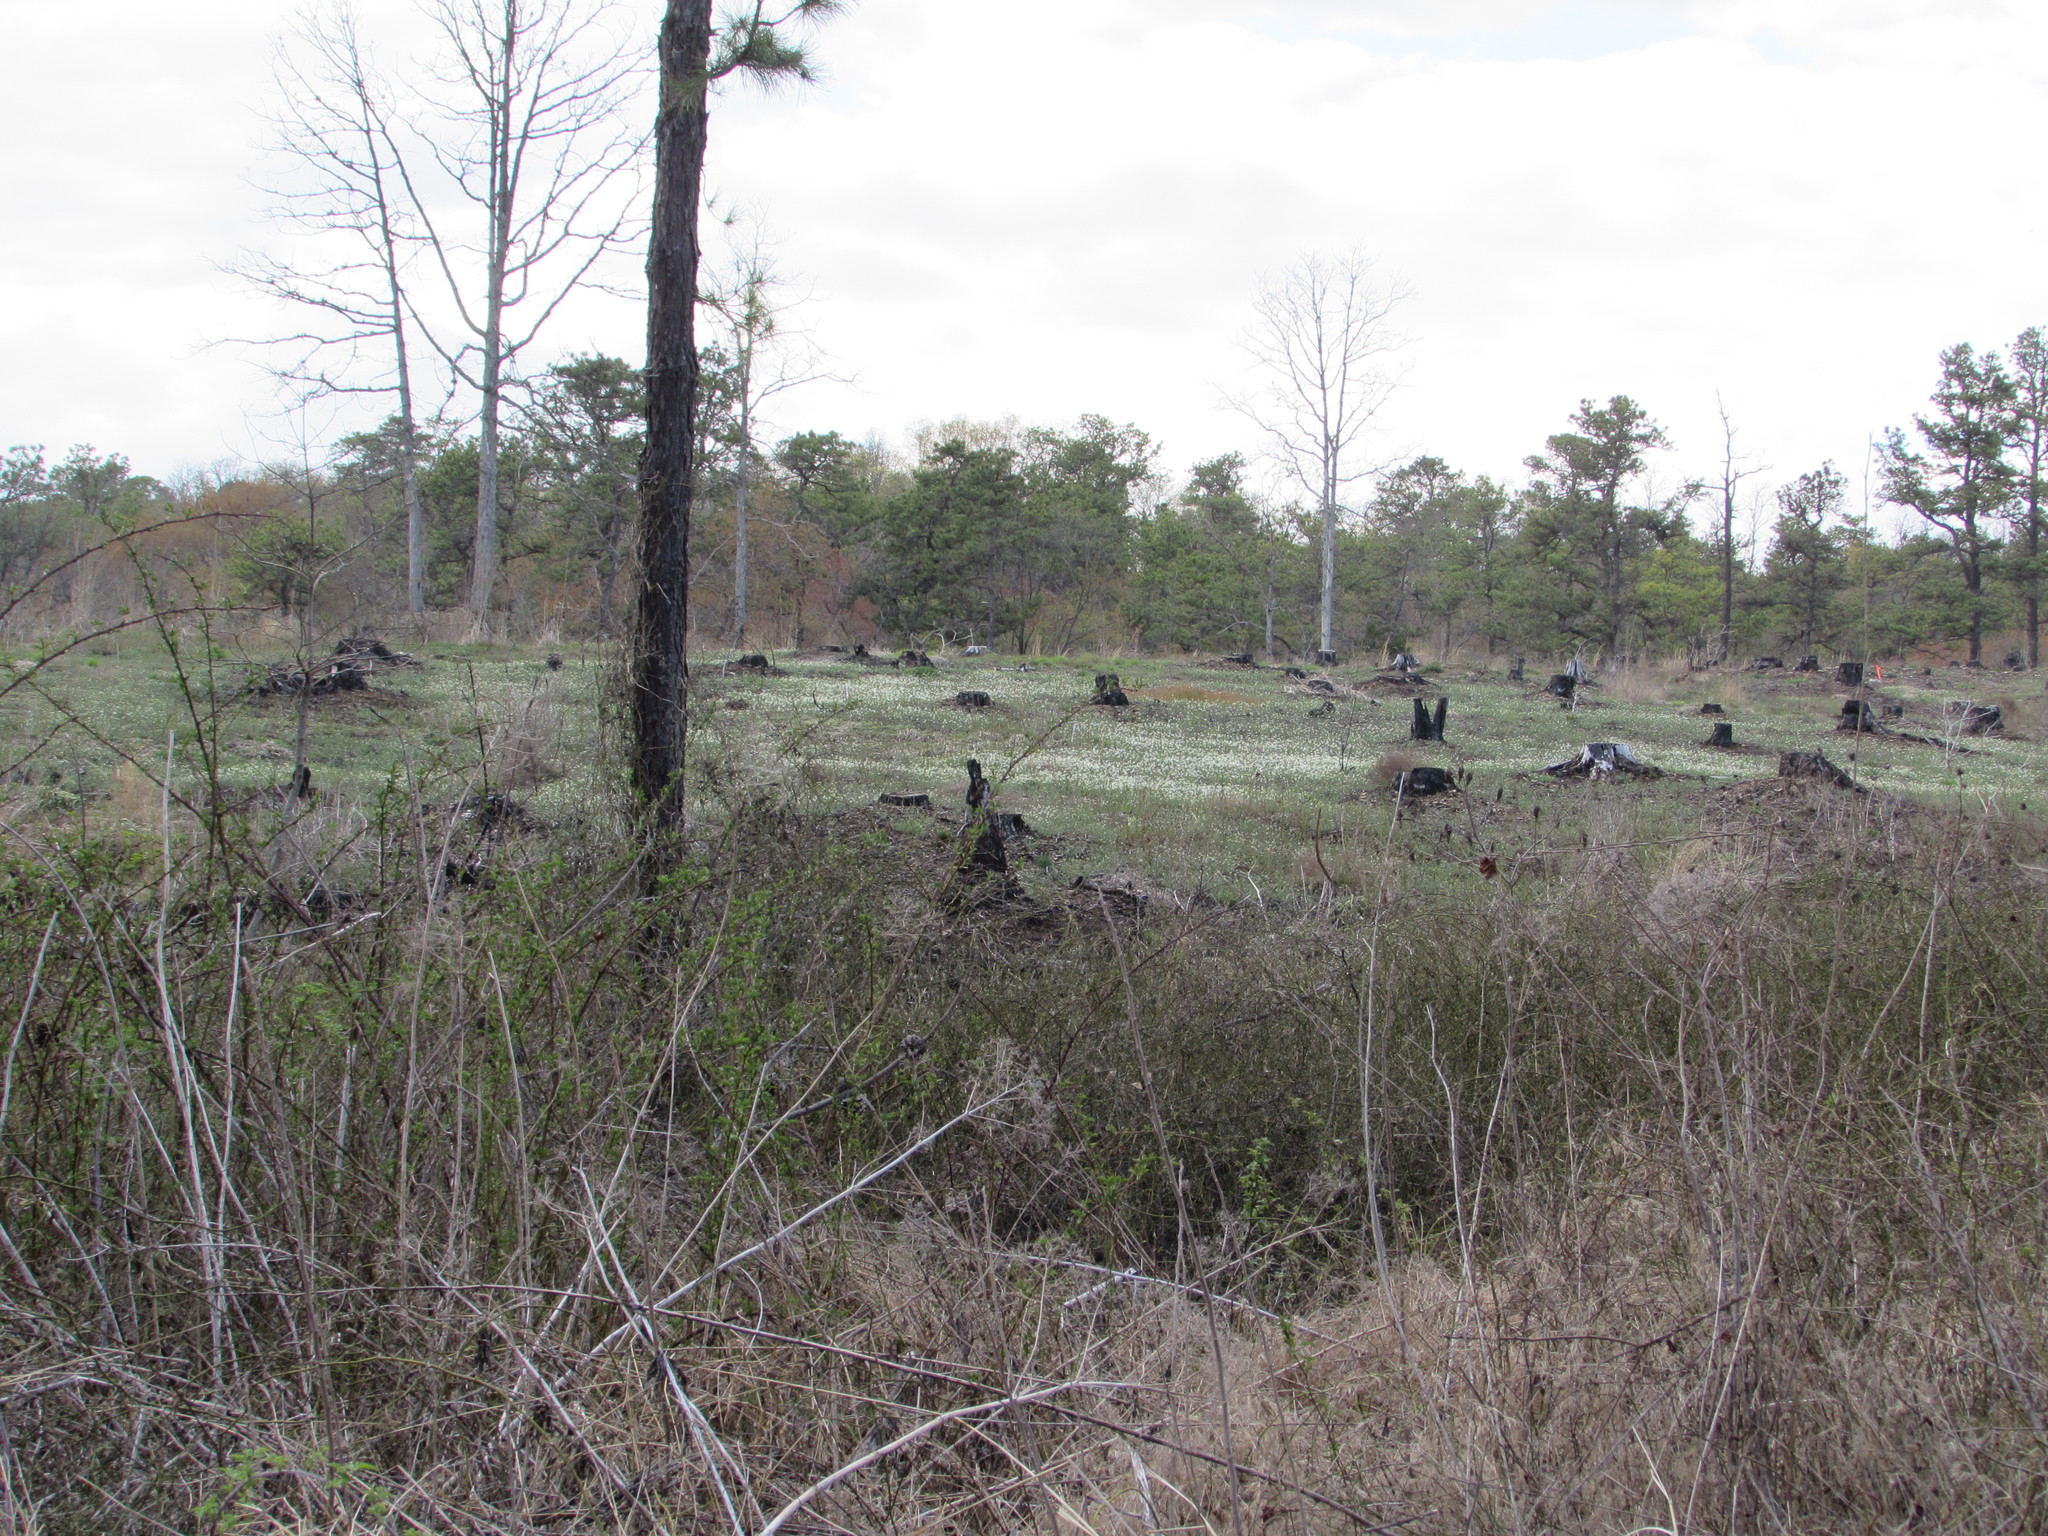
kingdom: Plantae
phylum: Tracheophyta
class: Magnoliopsida
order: Brassicales
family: Brassicaceae
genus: Arabidopsis
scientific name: Arabidopsis lyrata
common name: Lyrate rockcress
